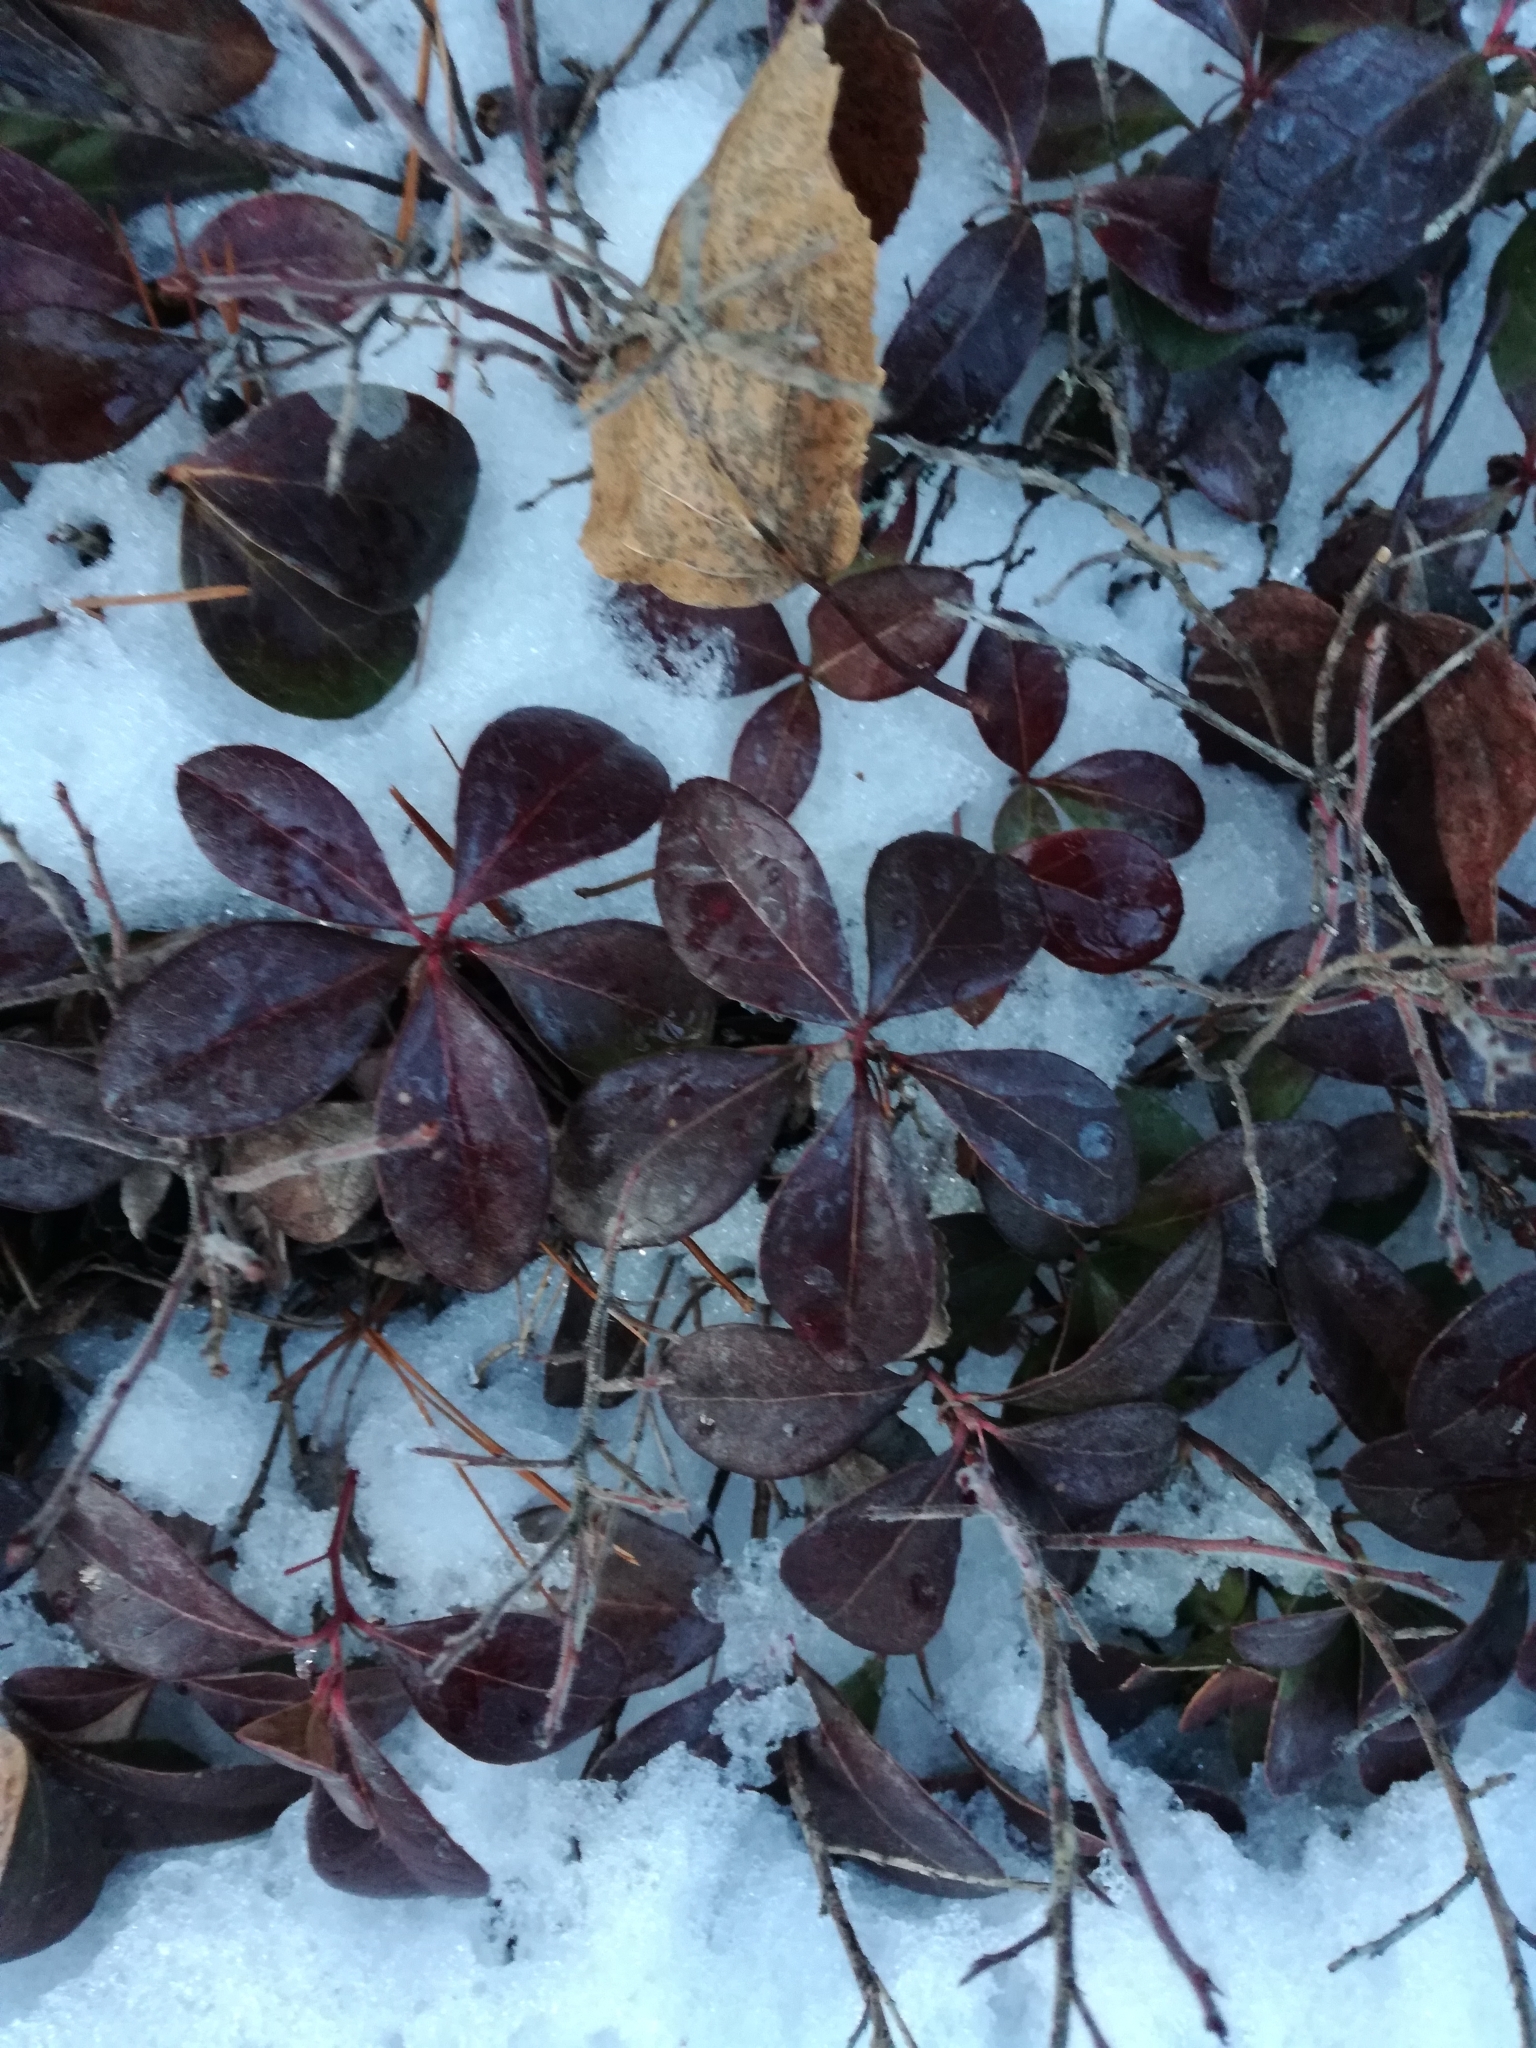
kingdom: Plantae
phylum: Tracheophyta
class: Magnoliopsida
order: Ericales
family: Ericaceae
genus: Gaultheria
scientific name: Gaultheria procumbens
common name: Checkerberry
